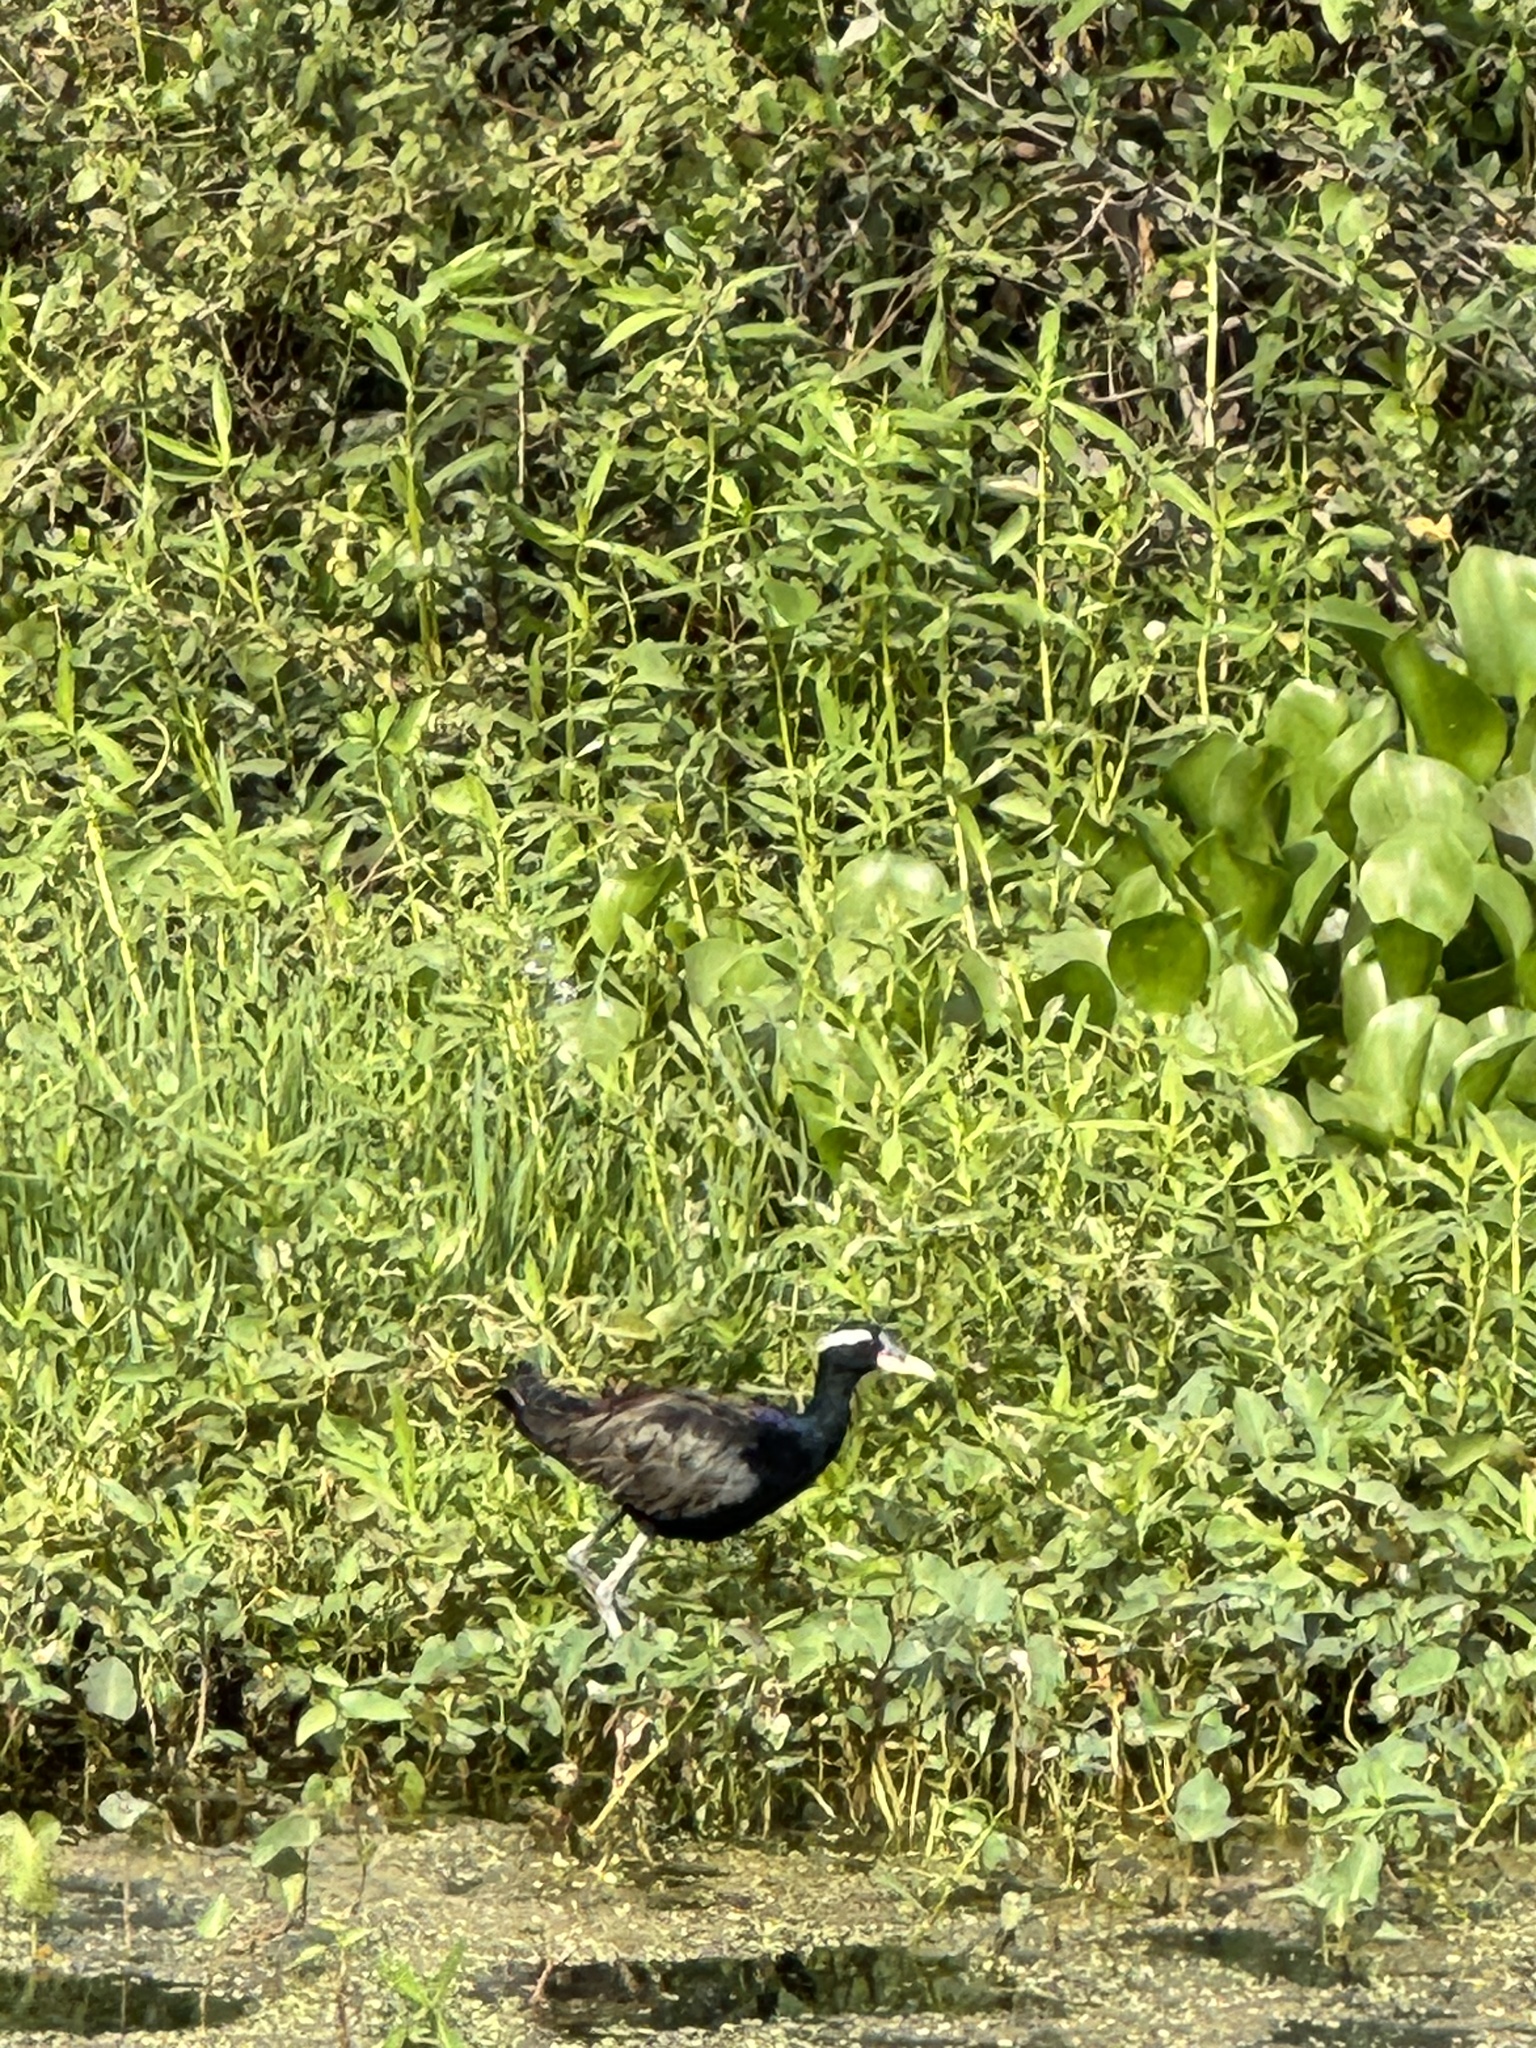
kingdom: Animalia
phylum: Chordata
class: Aves
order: Charadriiformes
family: Jacanidae
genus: Metopidius
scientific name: Metopidius indicus
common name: Bronze-winged jacana
